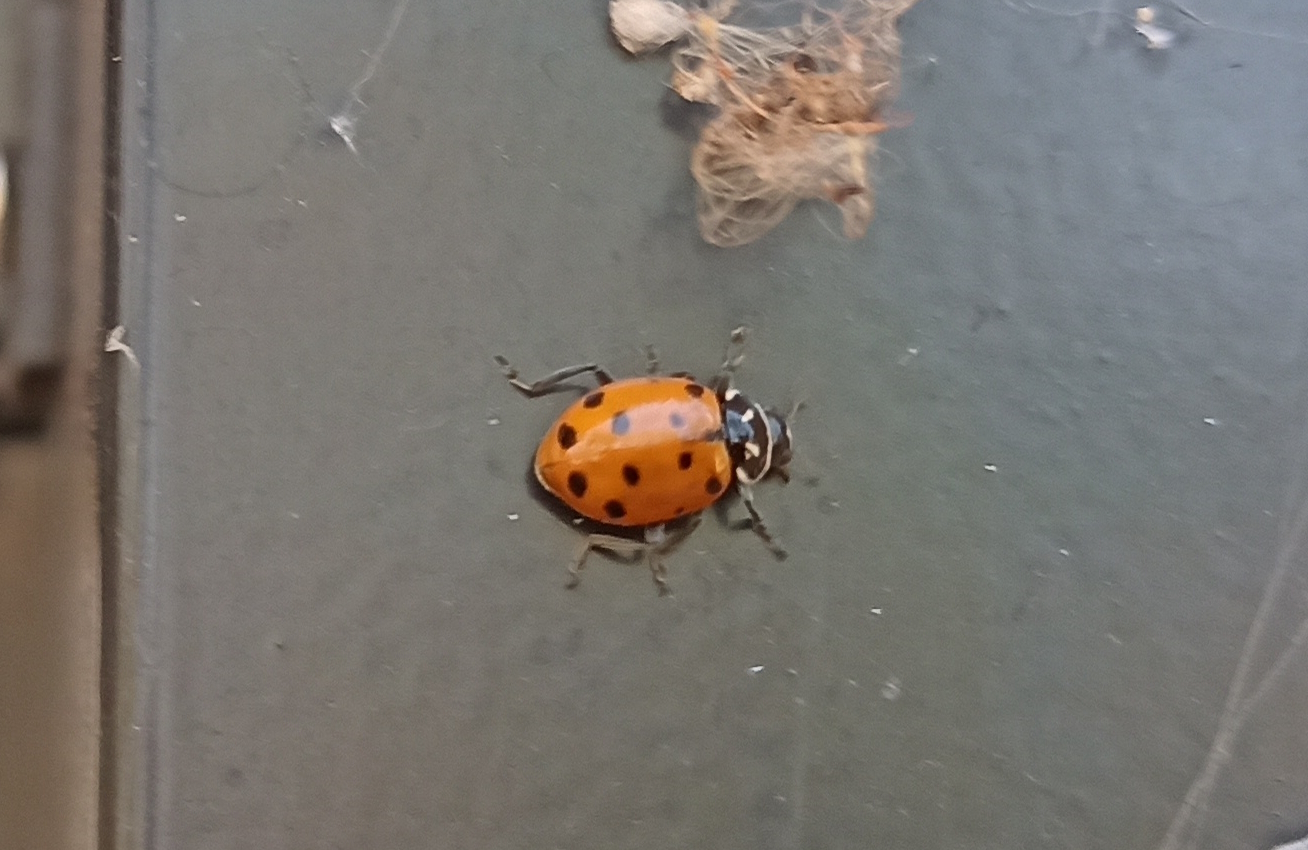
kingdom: Animalia
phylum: Arthropoda
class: Insecta
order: Coleoptera
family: Coccinellidae
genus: Hippodamia
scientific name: Hippodamia convergens
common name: Convergent lady beetle
